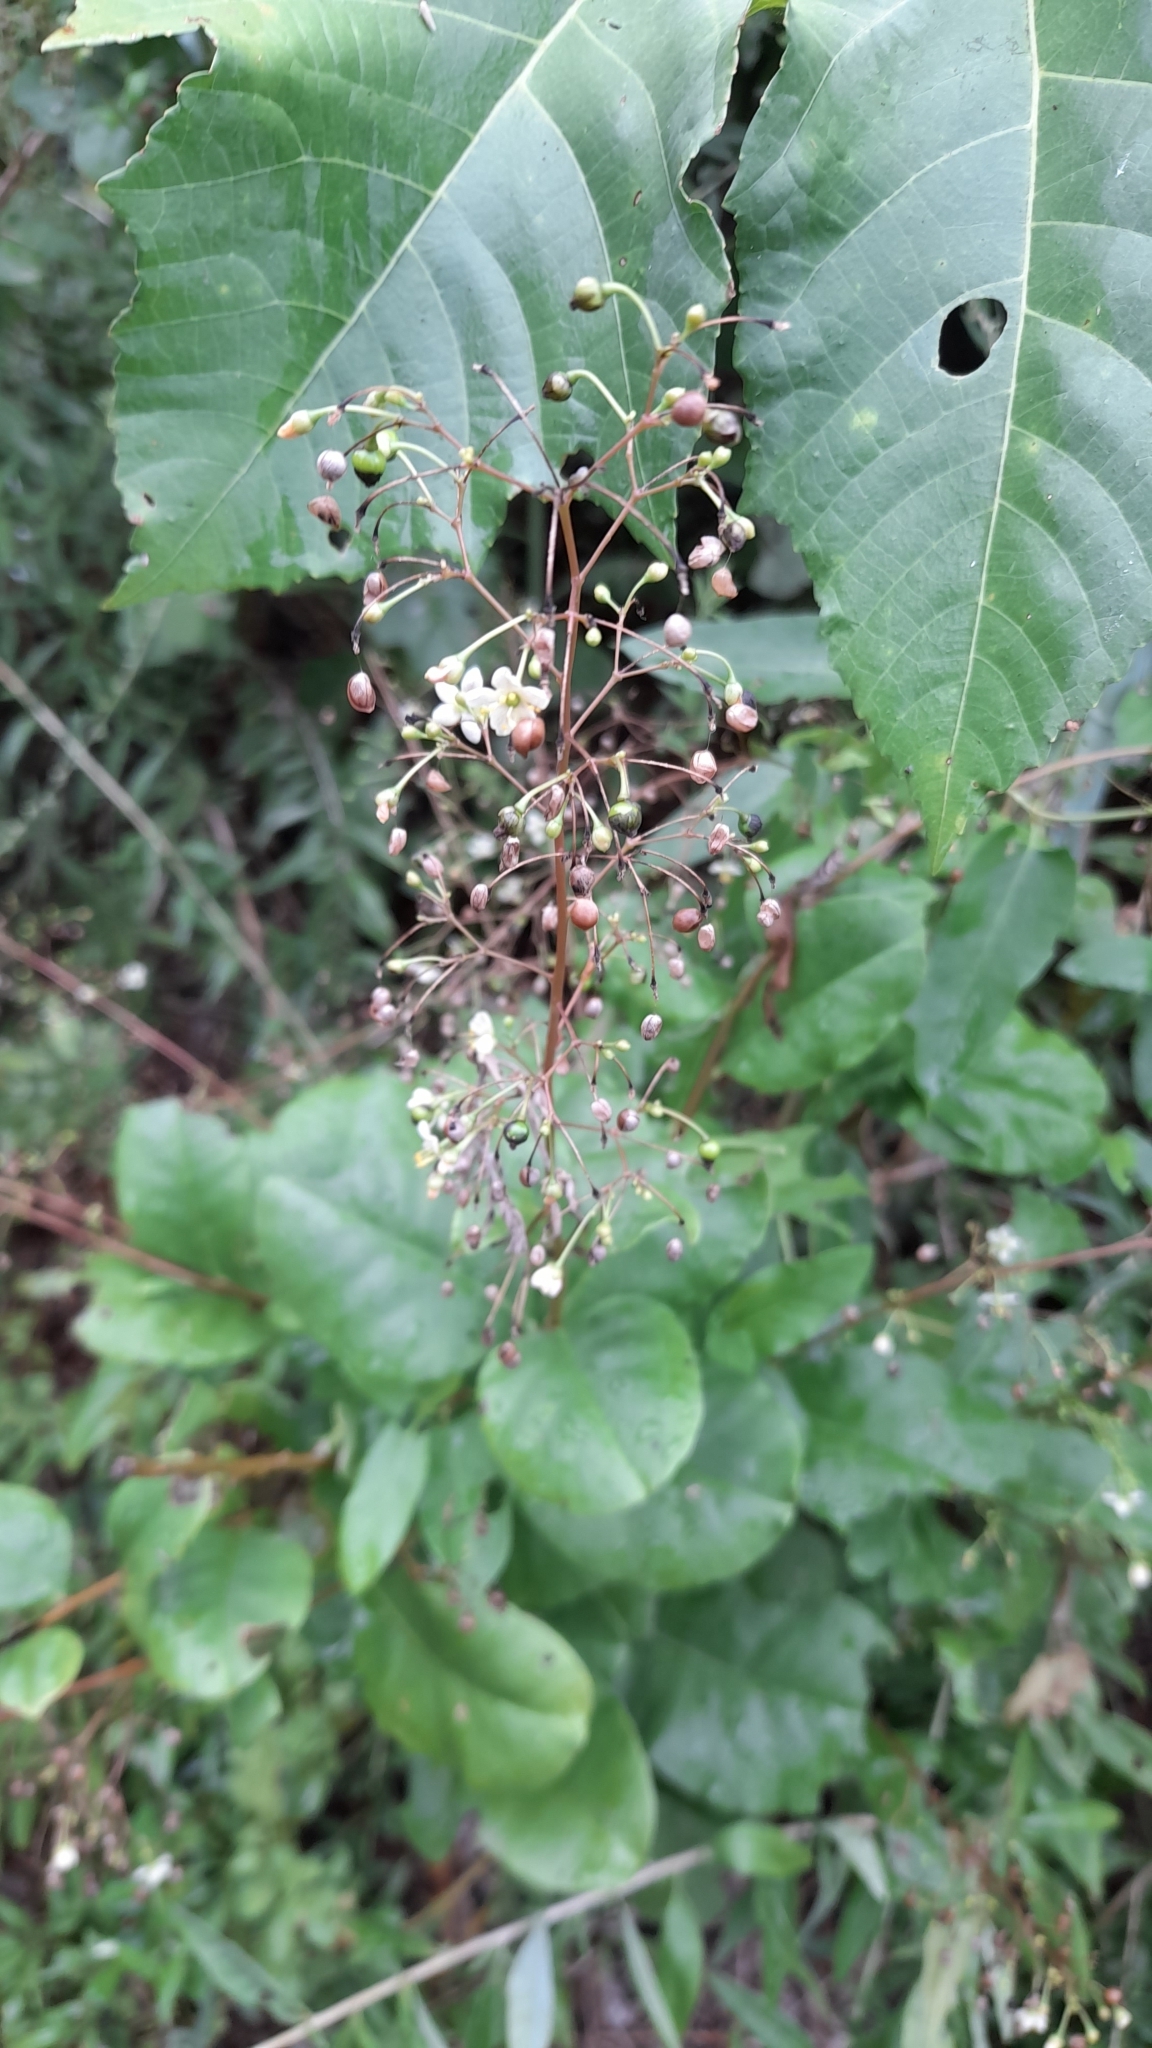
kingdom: Plantae
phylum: Tracheophyta
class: Magnoliopsida
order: Caryophyllales
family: Talinaceae
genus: Talinum
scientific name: Talinum paniculatum
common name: Jewels of opar
